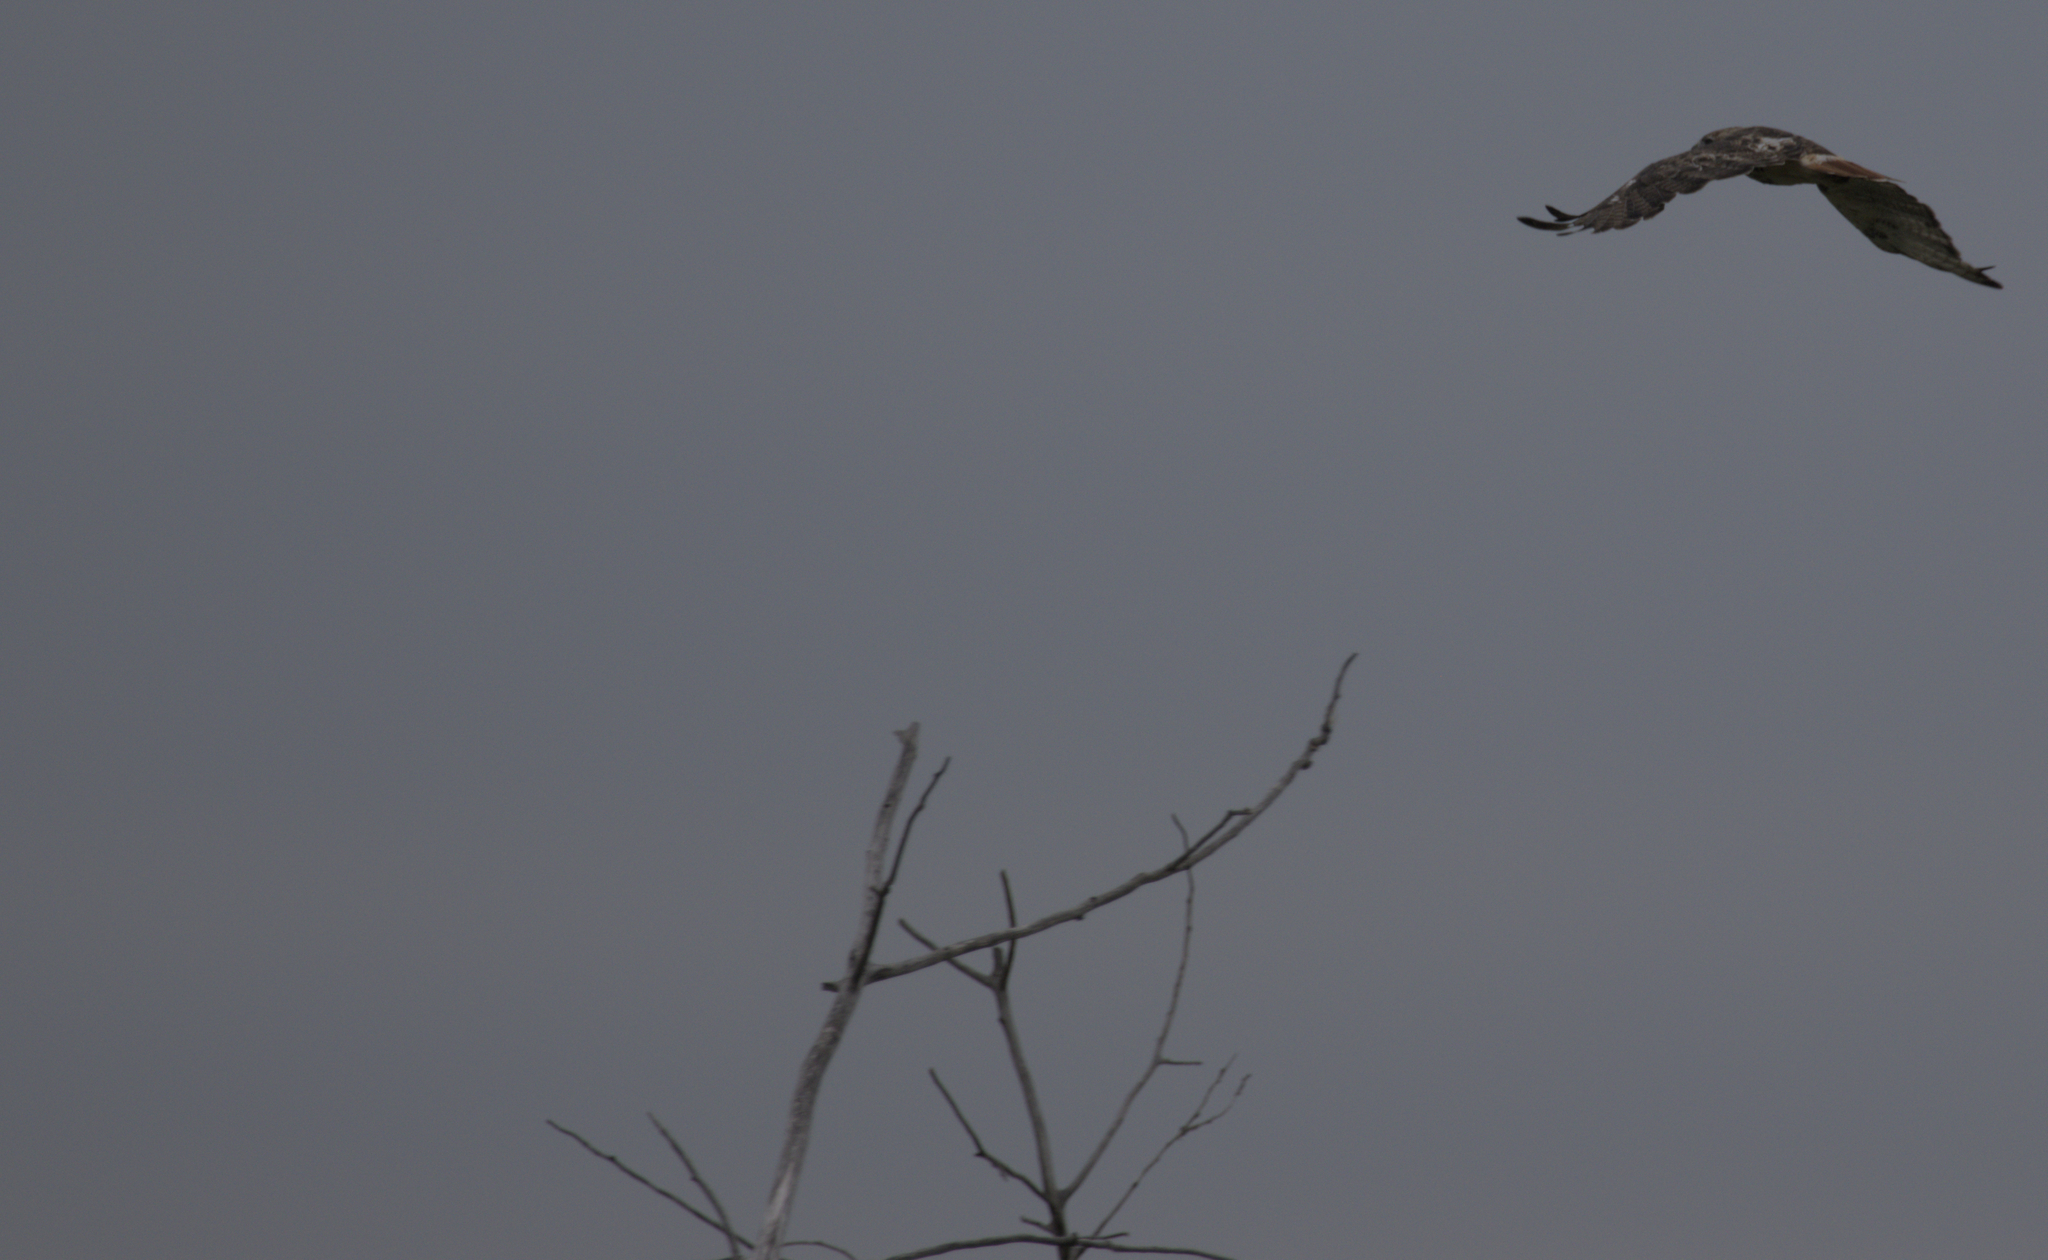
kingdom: Animalia
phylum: Chordata
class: Aves
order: Accipitriformes
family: Accipitridae
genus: Buteo
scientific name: Buteo jamaicensis
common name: Red-tailed hawk
